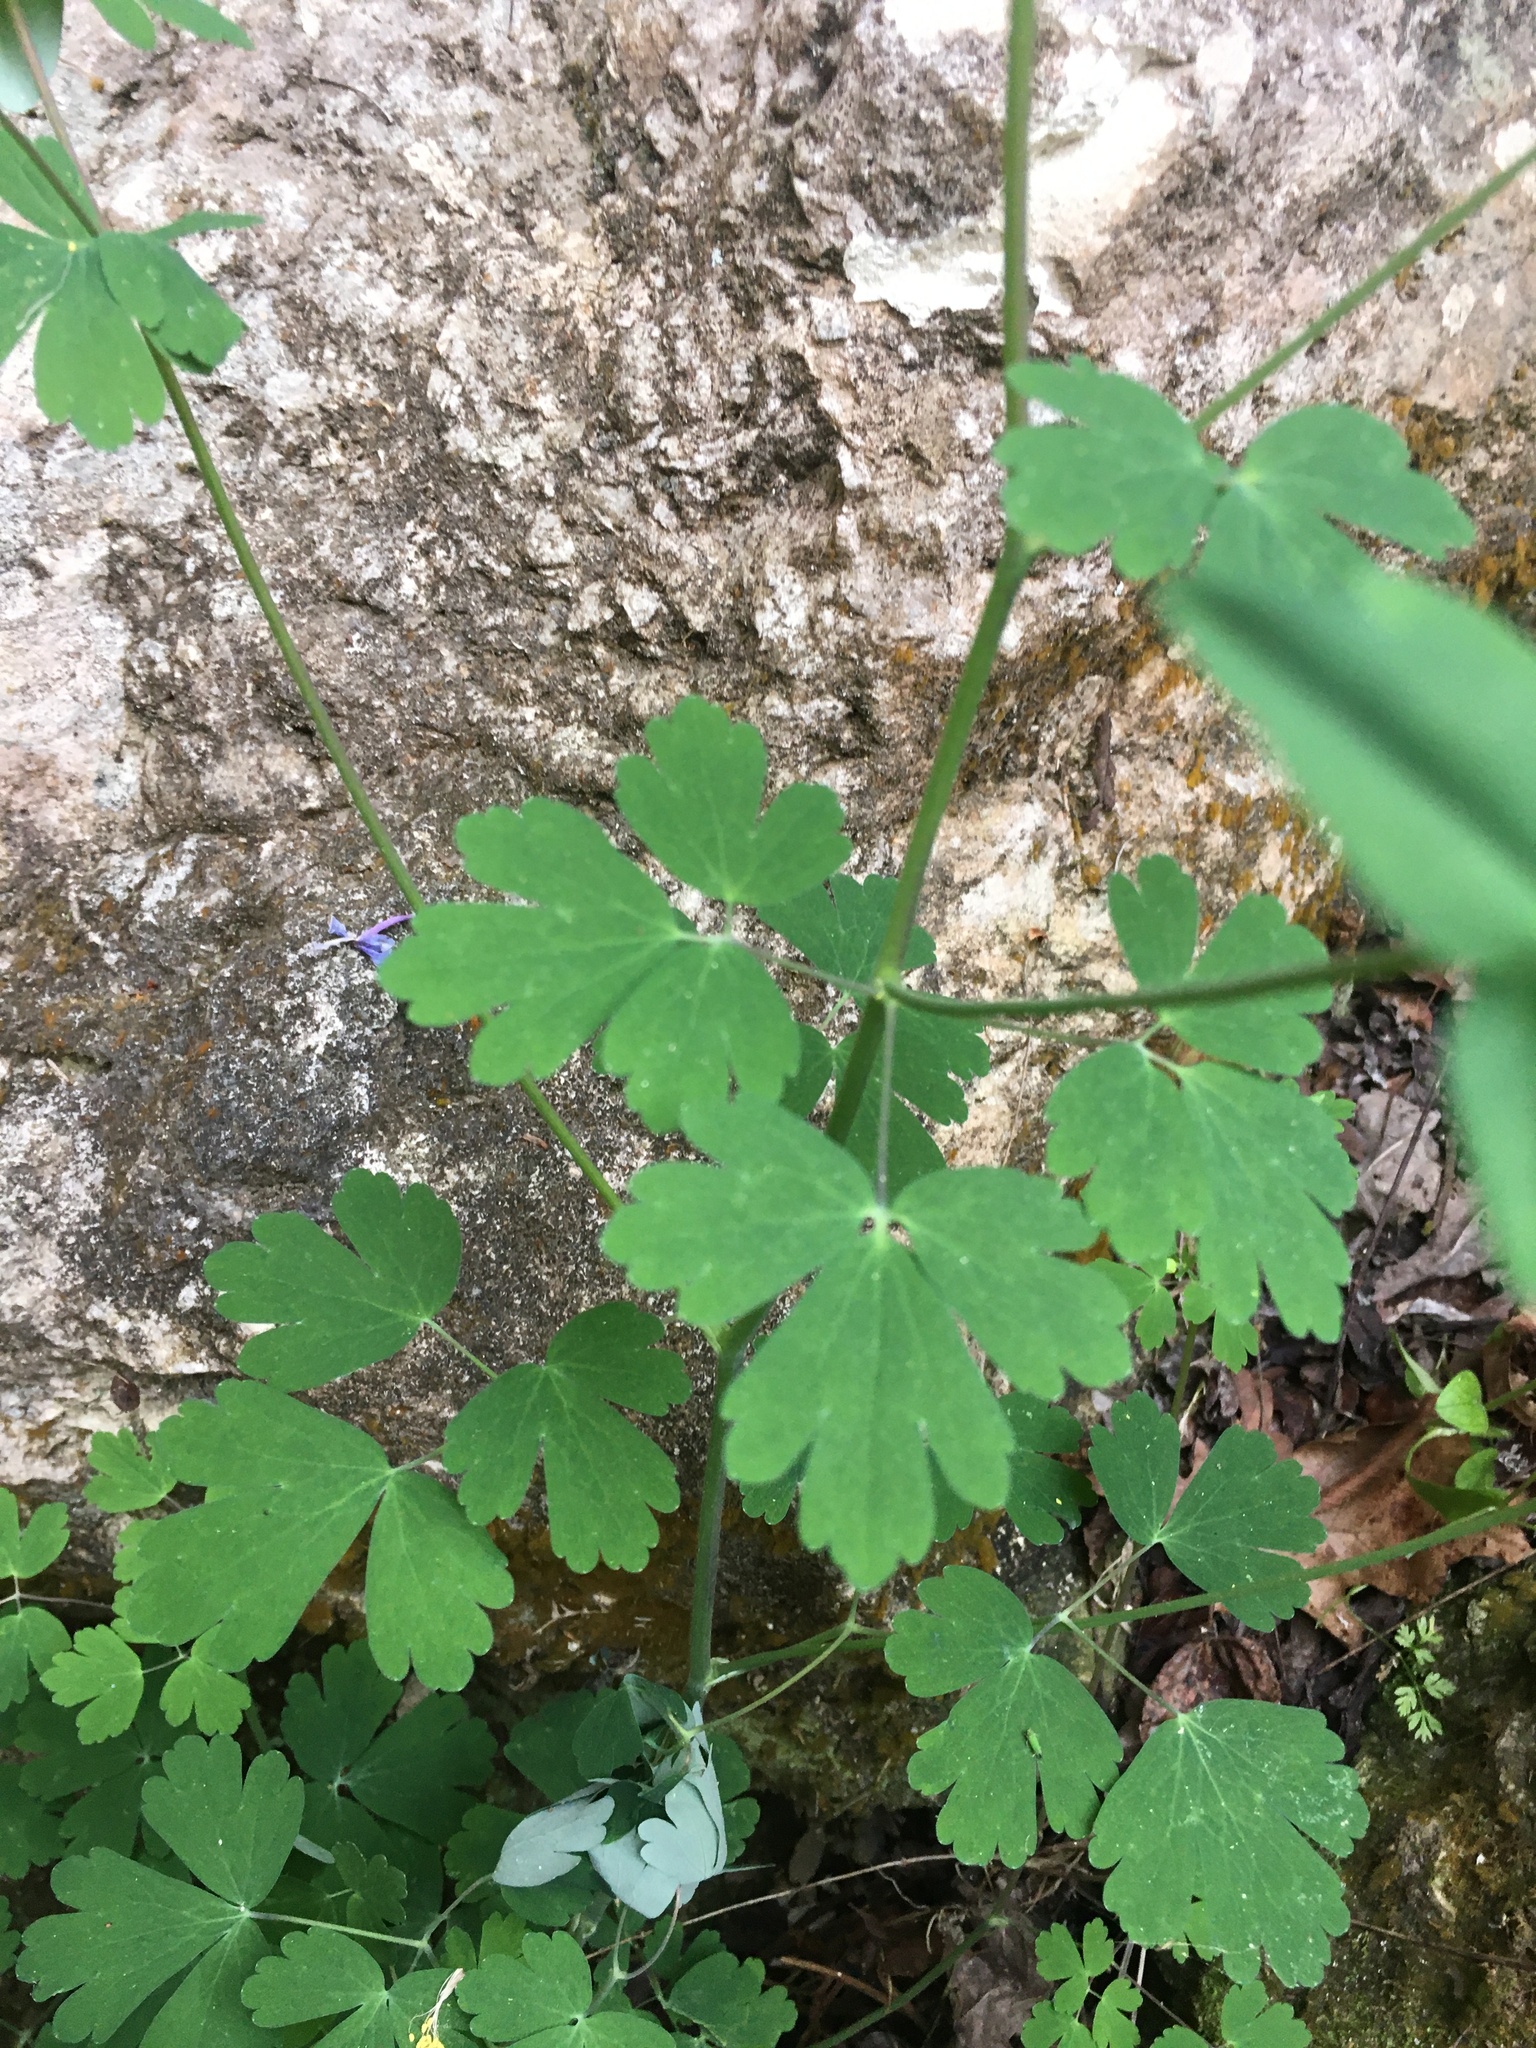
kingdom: Plantae
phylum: Tracheophyta
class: Magnoliopsida
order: Ranunculales
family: Ranunculaceae
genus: Aquilegia
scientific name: Aquilegia canadensis
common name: American columbine
